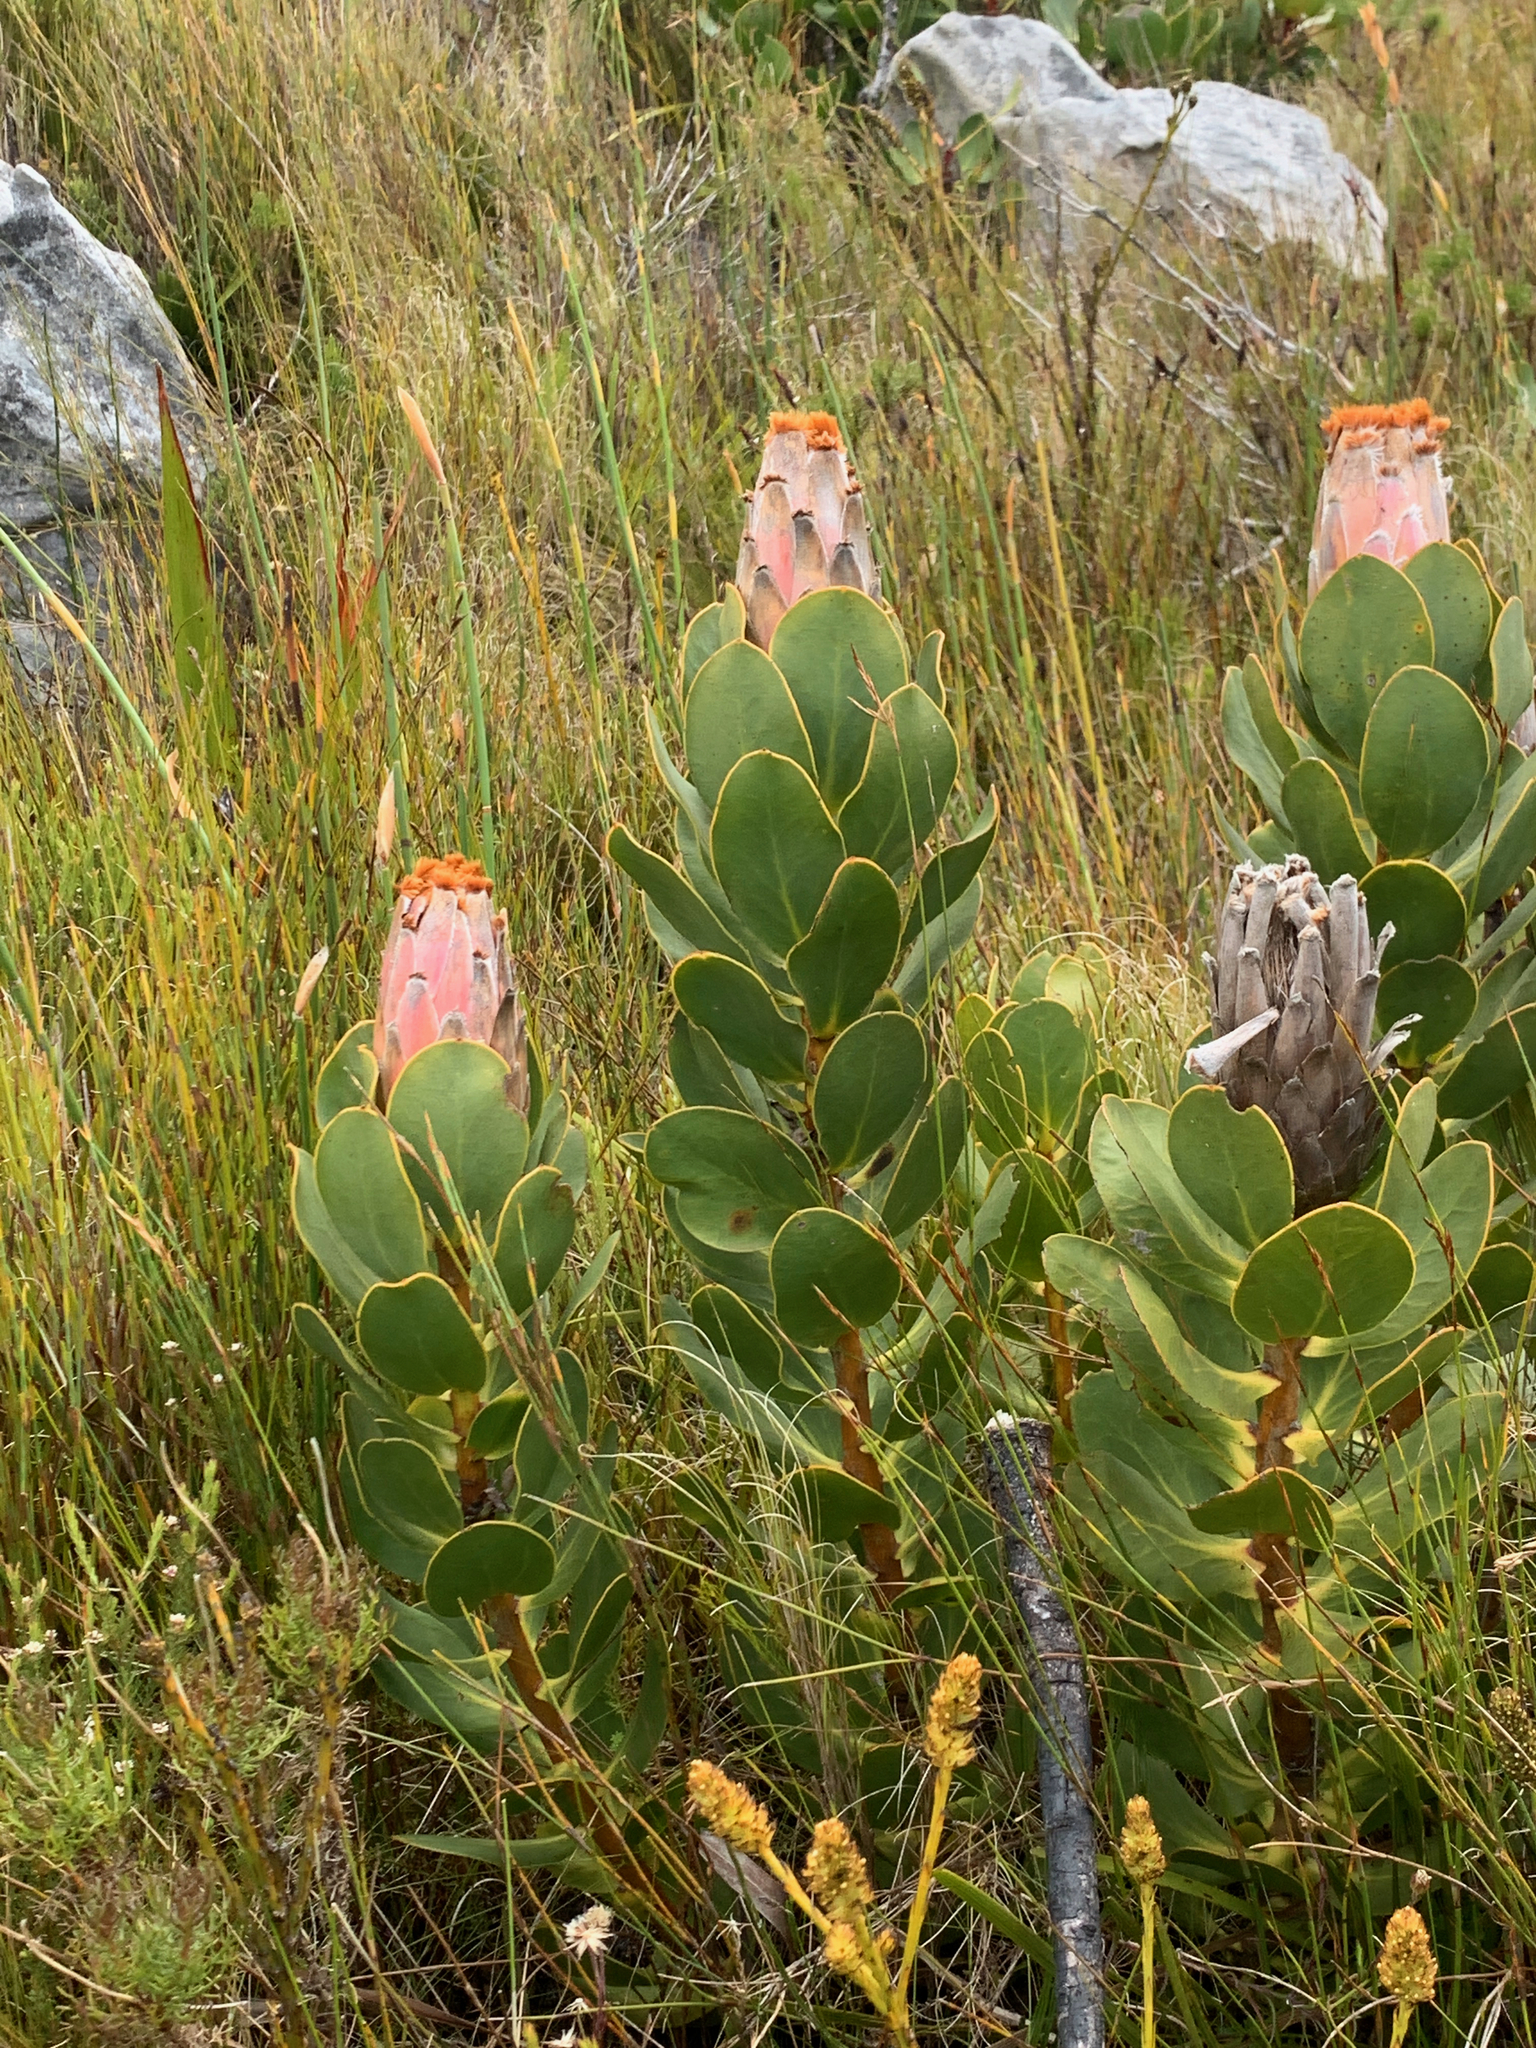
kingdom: Plantae
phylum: Tracheophyta
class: Magnoliopsida
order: Proteales
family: Proteaceae
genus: Protea
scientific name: Protea speciosa
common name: Brown-beard sugarbush
